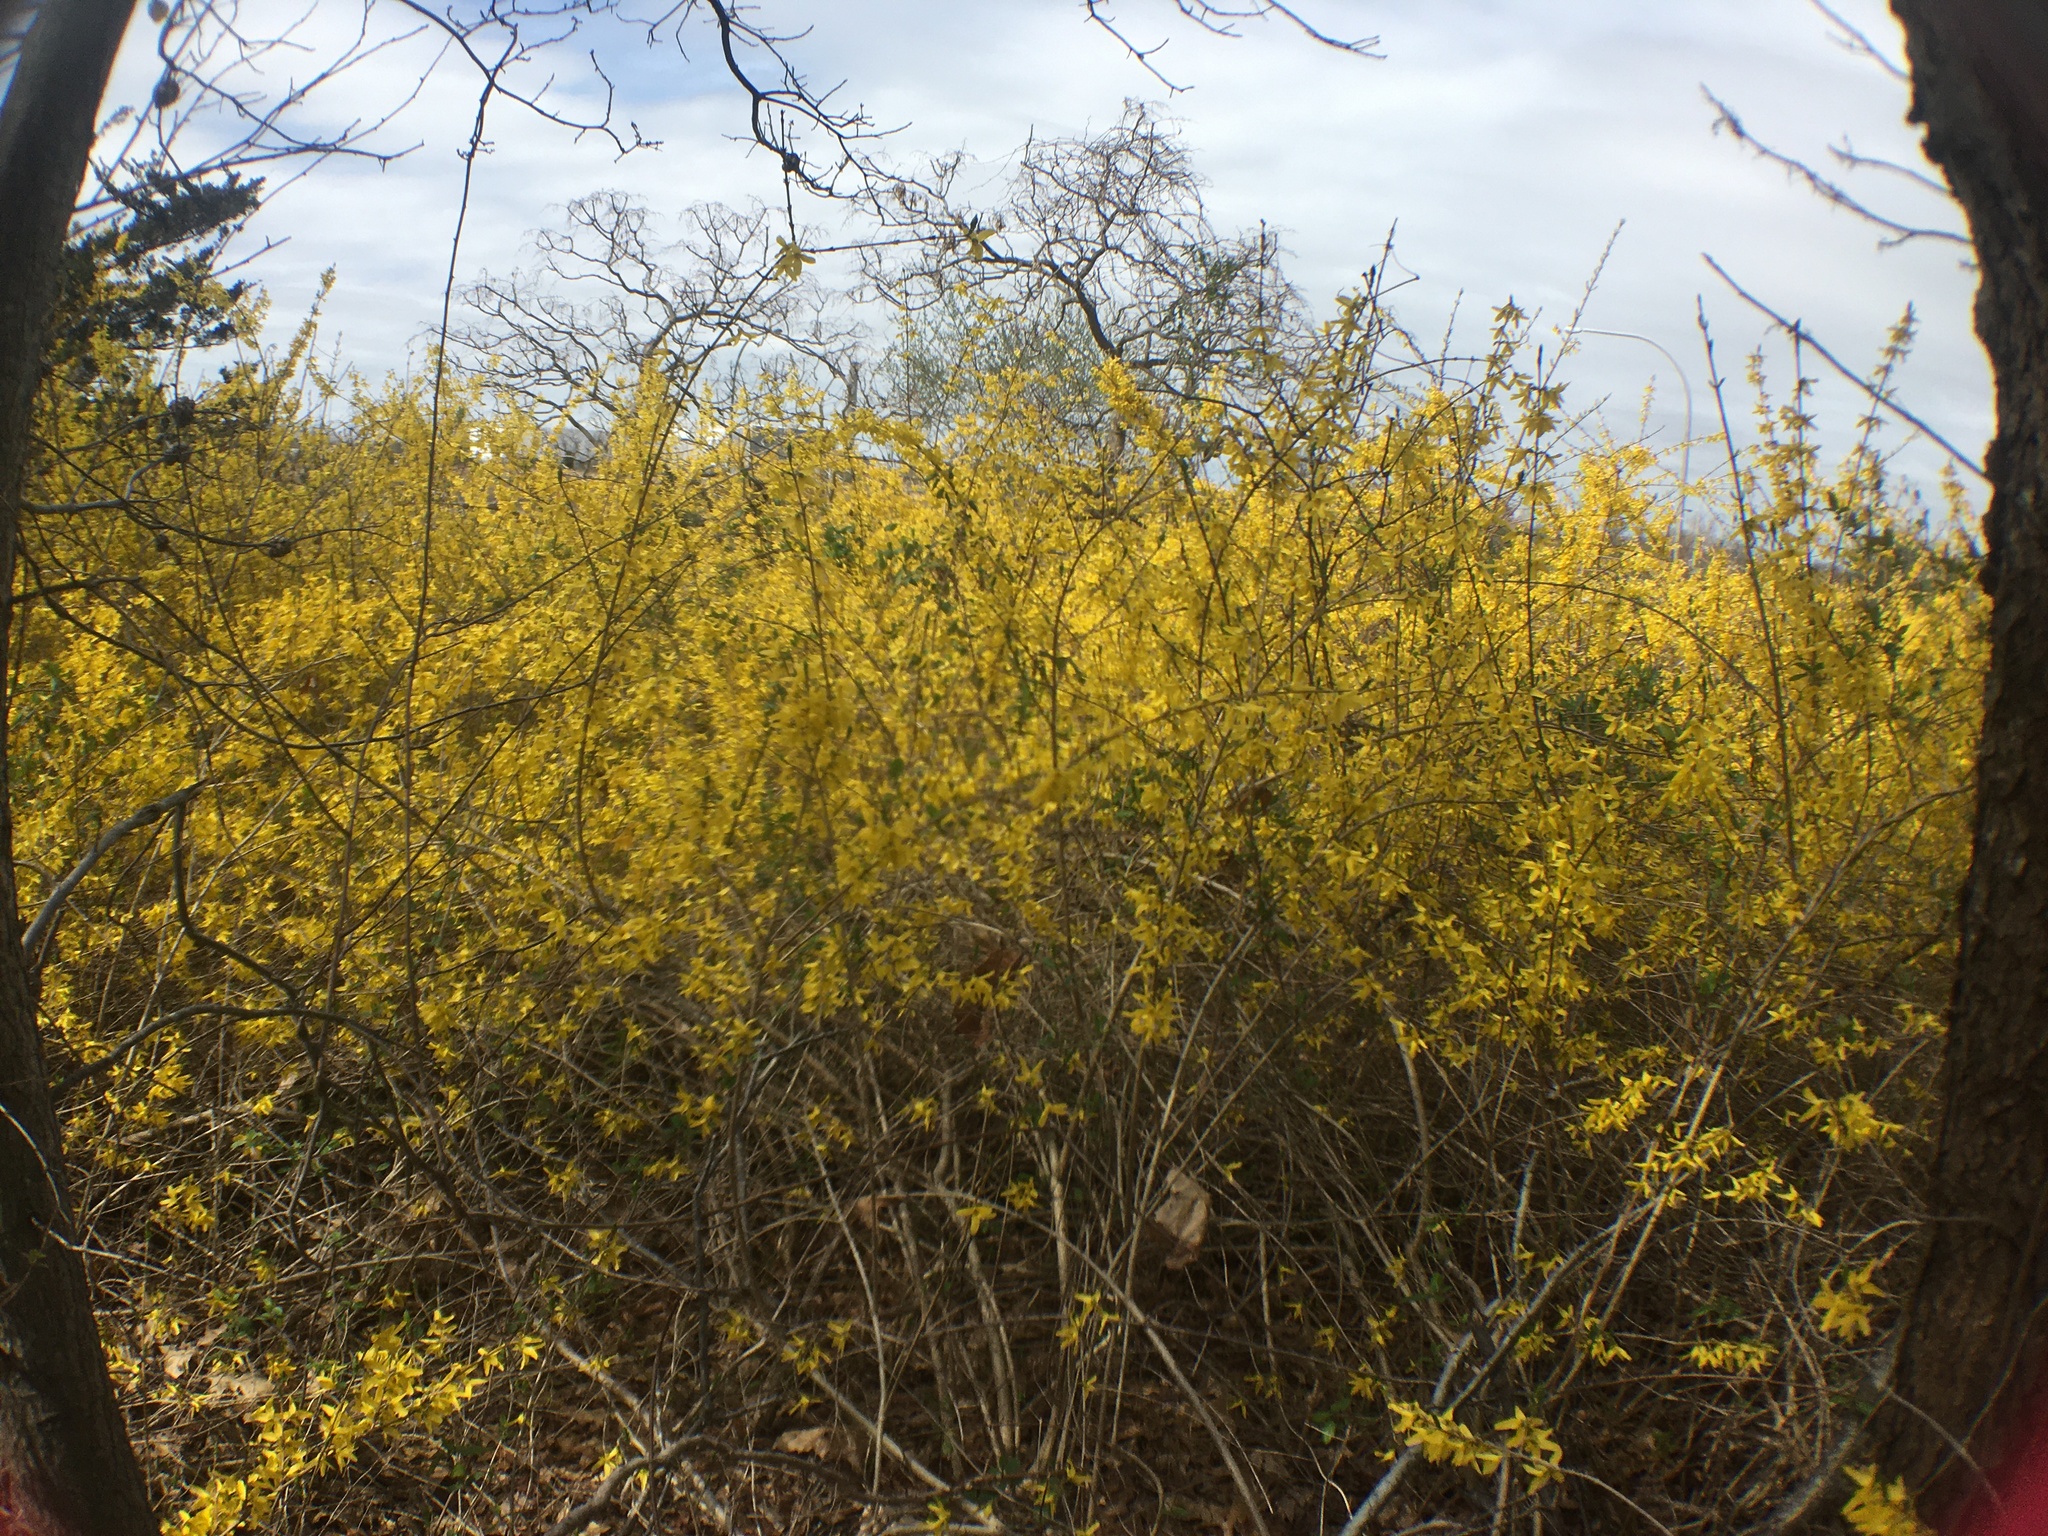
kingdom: Plantae
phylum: Tracheophyta
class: Magnoliopsida
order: Lamiales
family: Oleaceae
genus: Forsythia
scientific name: Forsythia intermedia
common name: Forsythia
